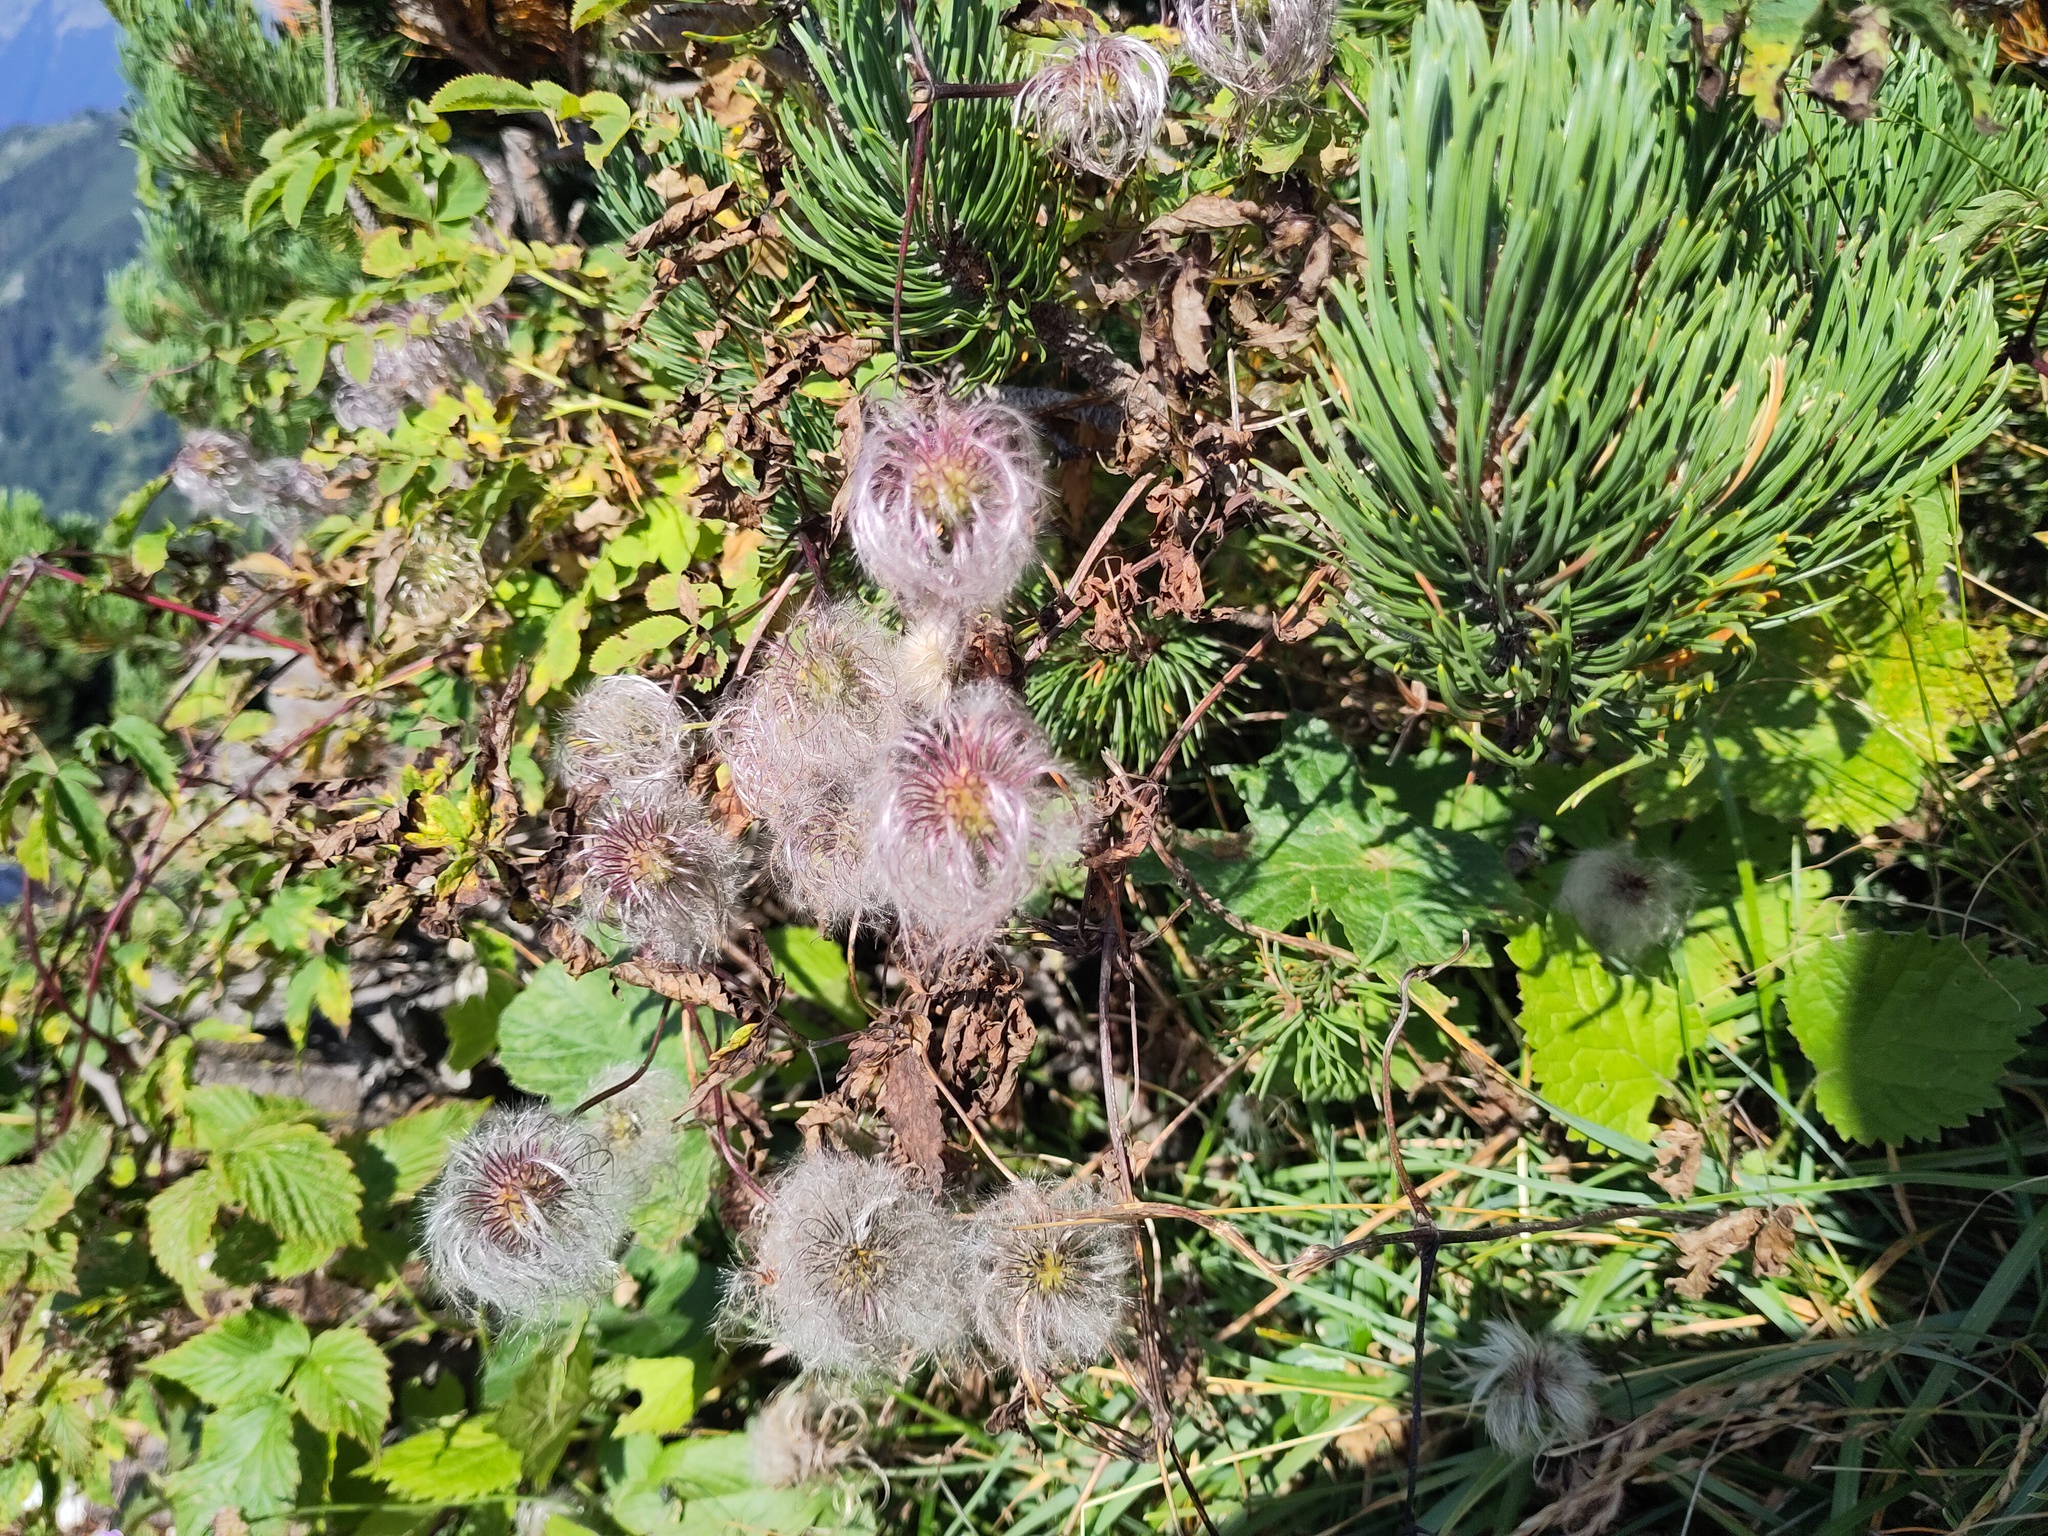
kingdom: Plantae
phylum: Tracheophyta
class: Magnoliopsida
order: Ranunculales
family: Ranunculaceae
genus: Clematis
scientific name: Clematis alpina
